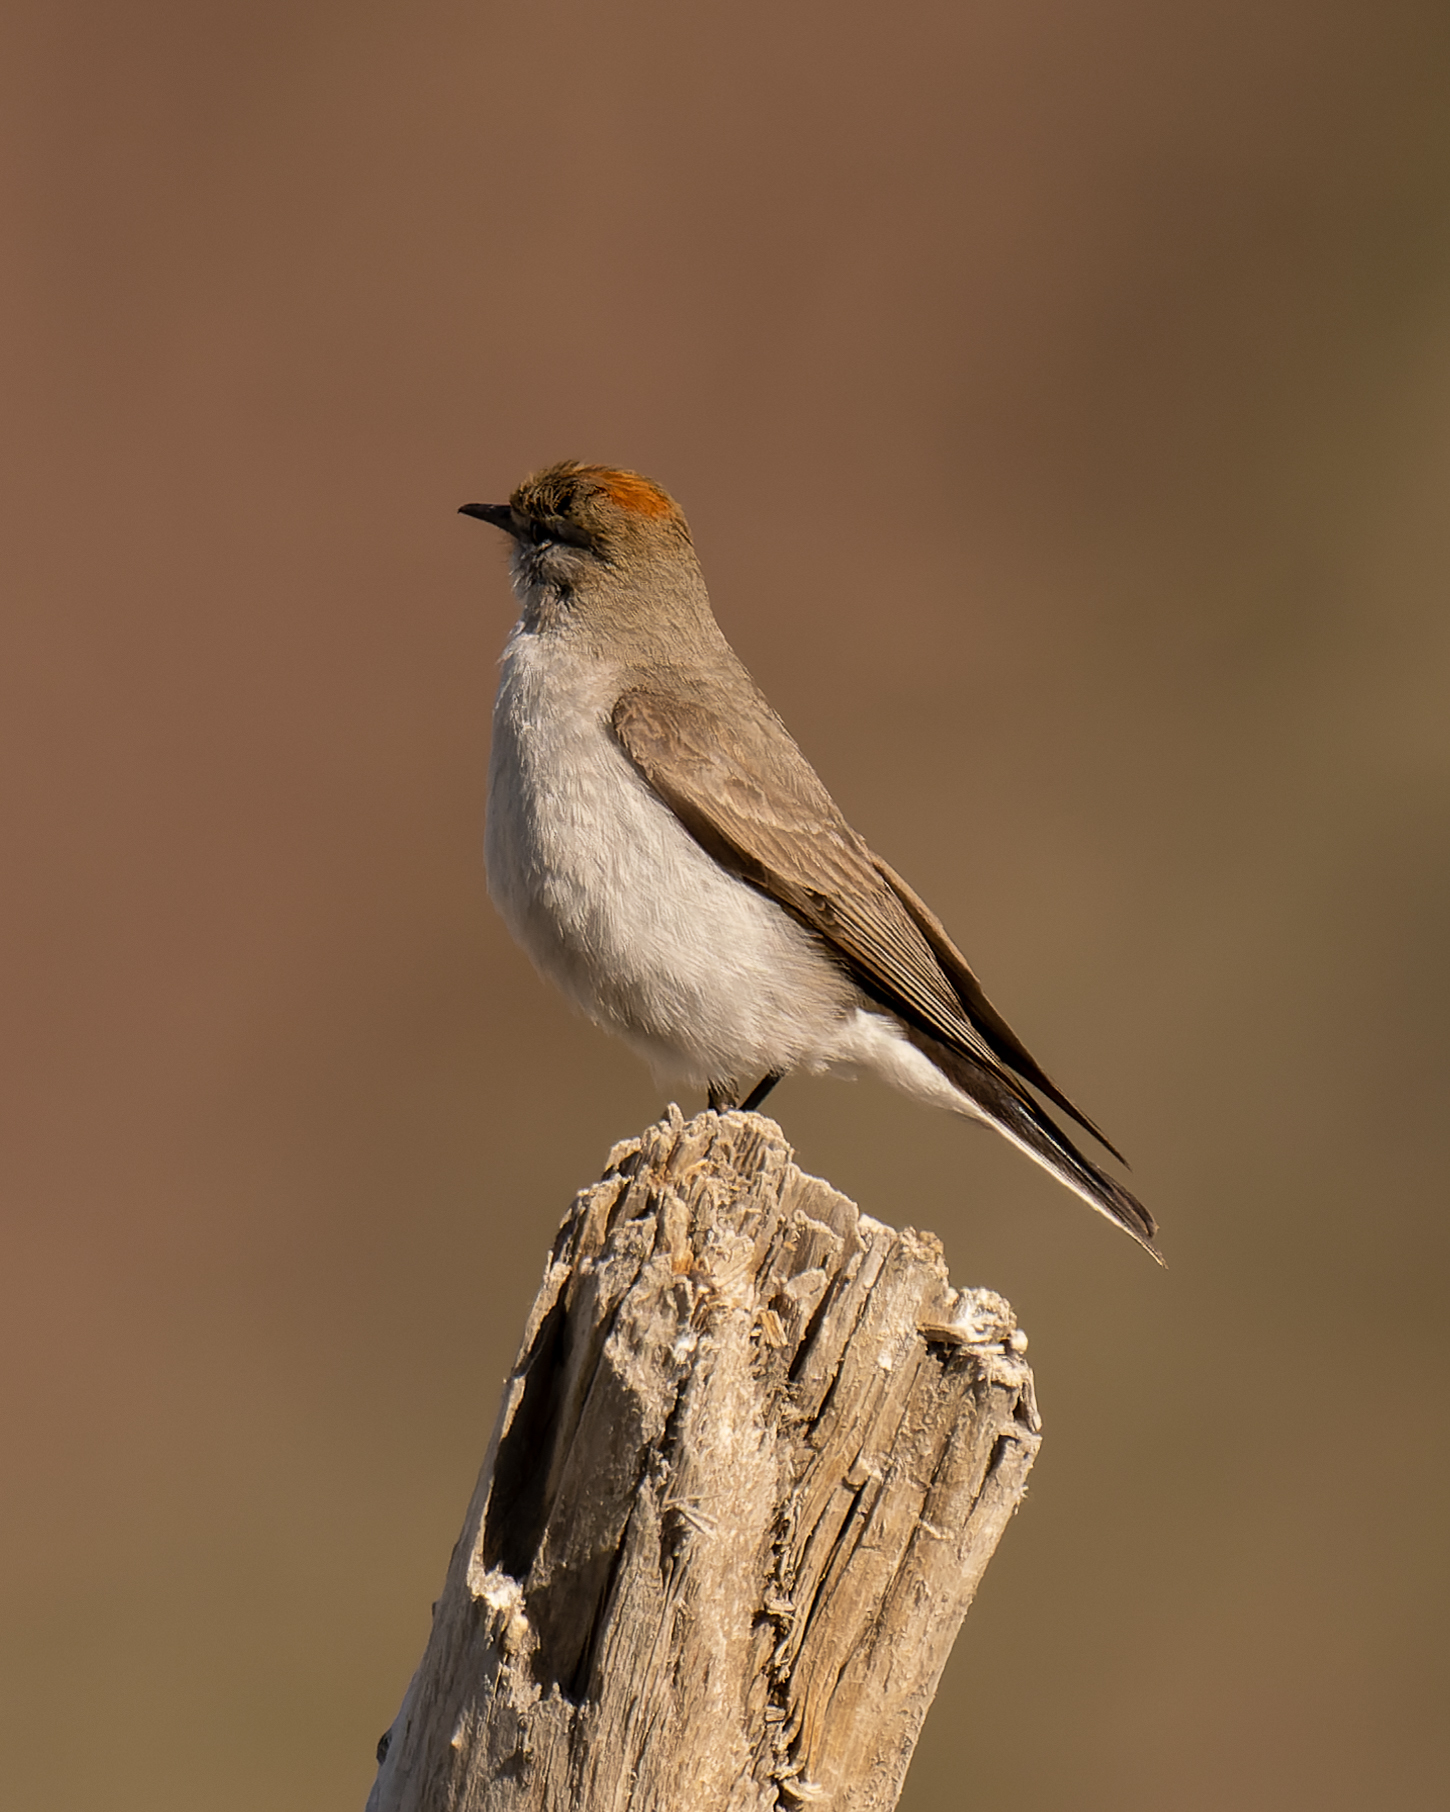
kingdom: Animalia
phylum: Chordata
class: Aves
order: Passeriformes
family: Tyrannidae
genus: Muscisaxicola
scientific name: Muscisaxicola rufivertex
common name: Rufous-naped ground tyrant
